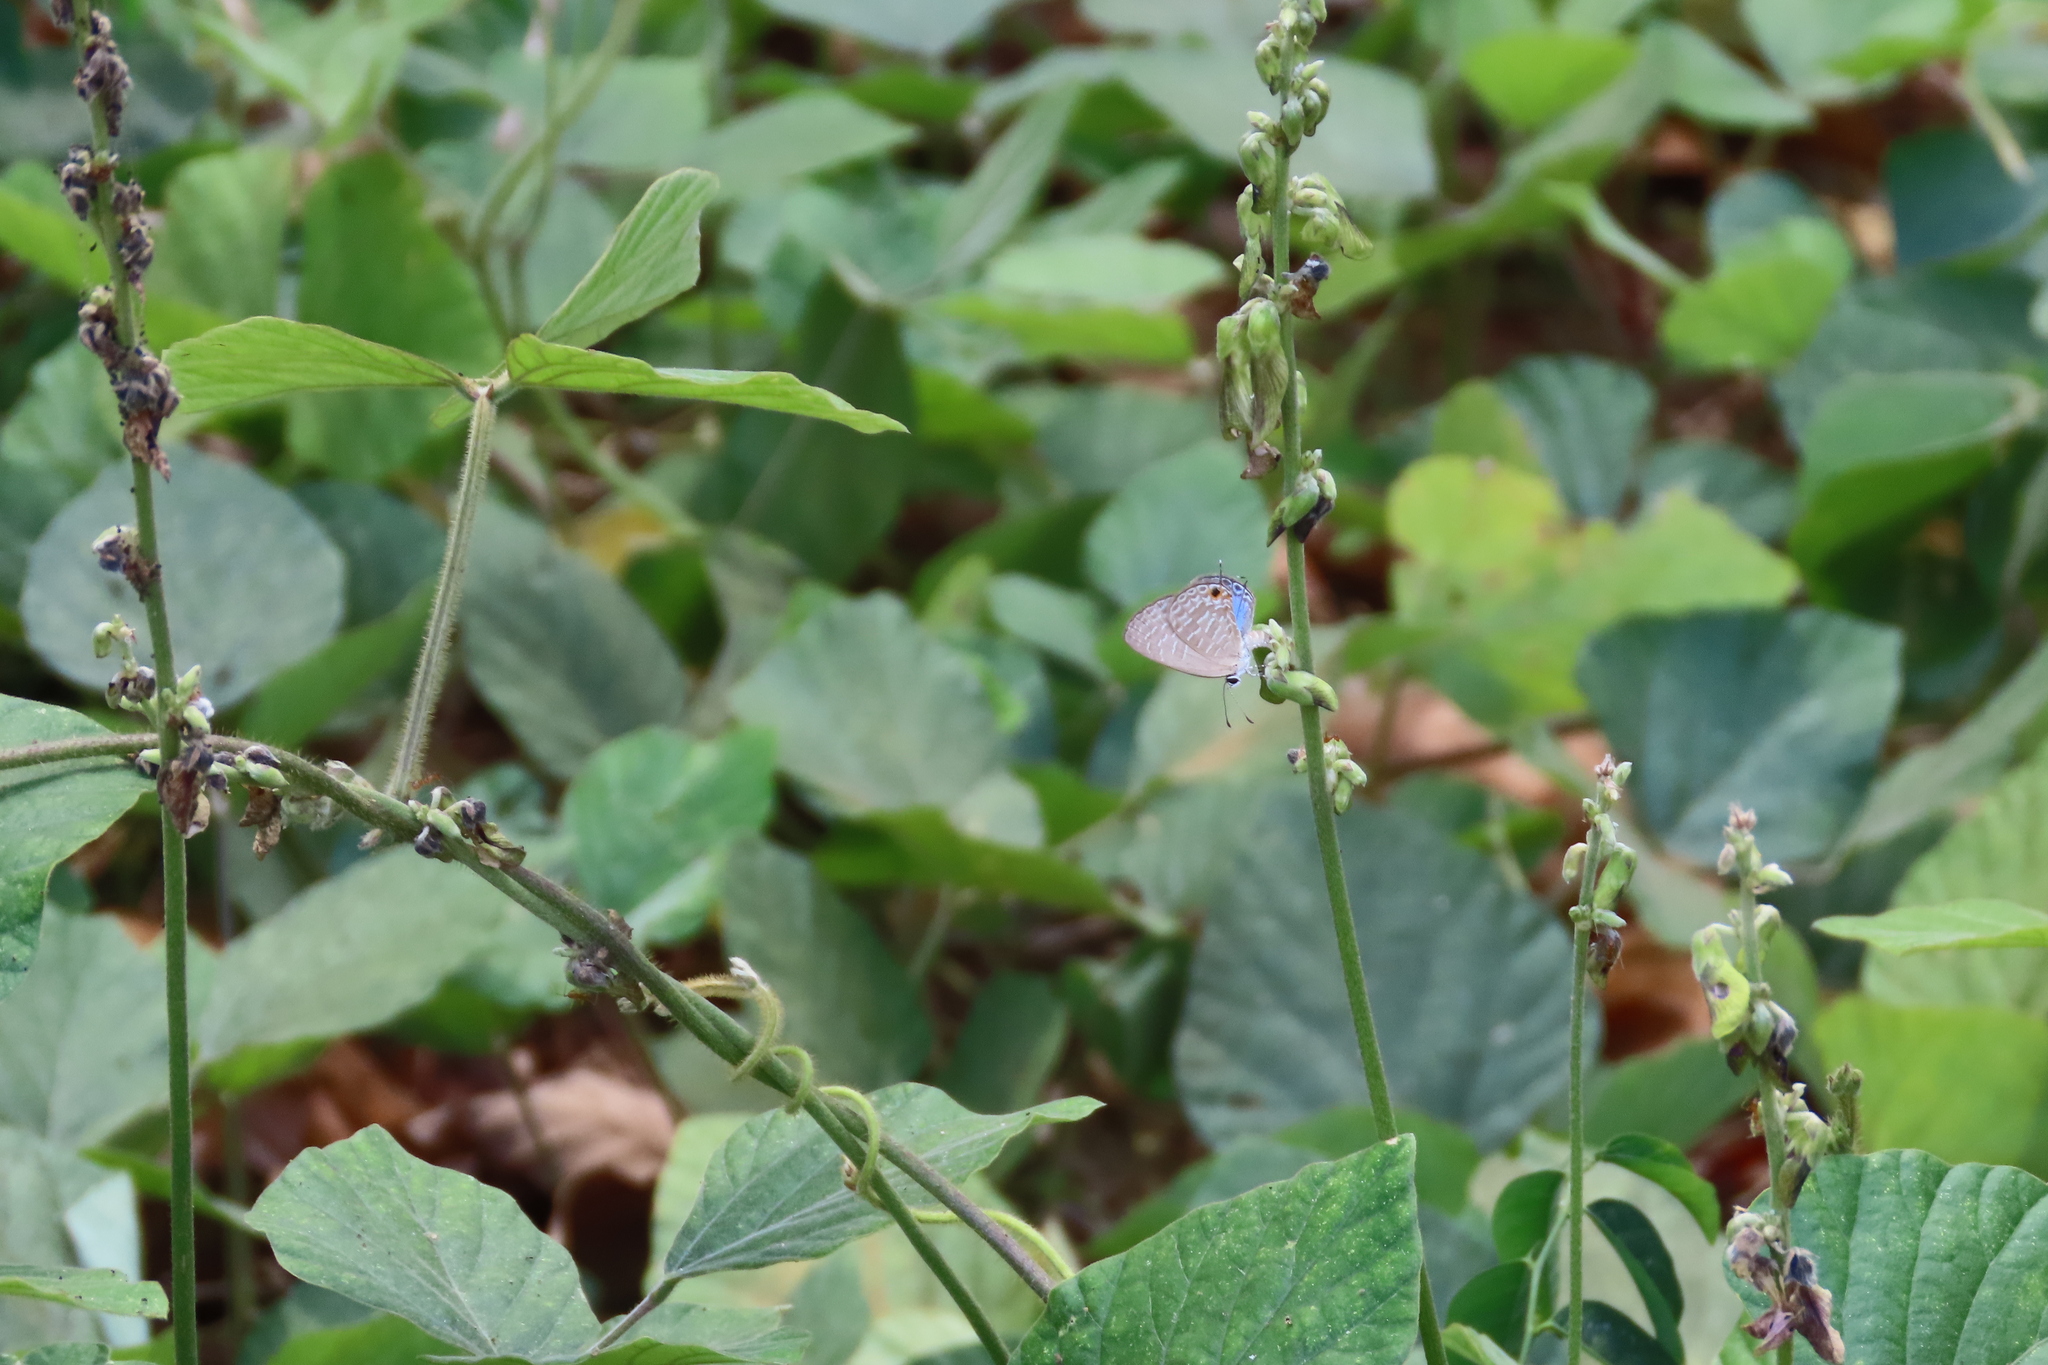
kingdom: Animalia
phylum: Arthropoda
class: Insecta
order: Lepidoptera
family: Lycaenidae
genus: Jamides
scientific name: Jamides bochus
